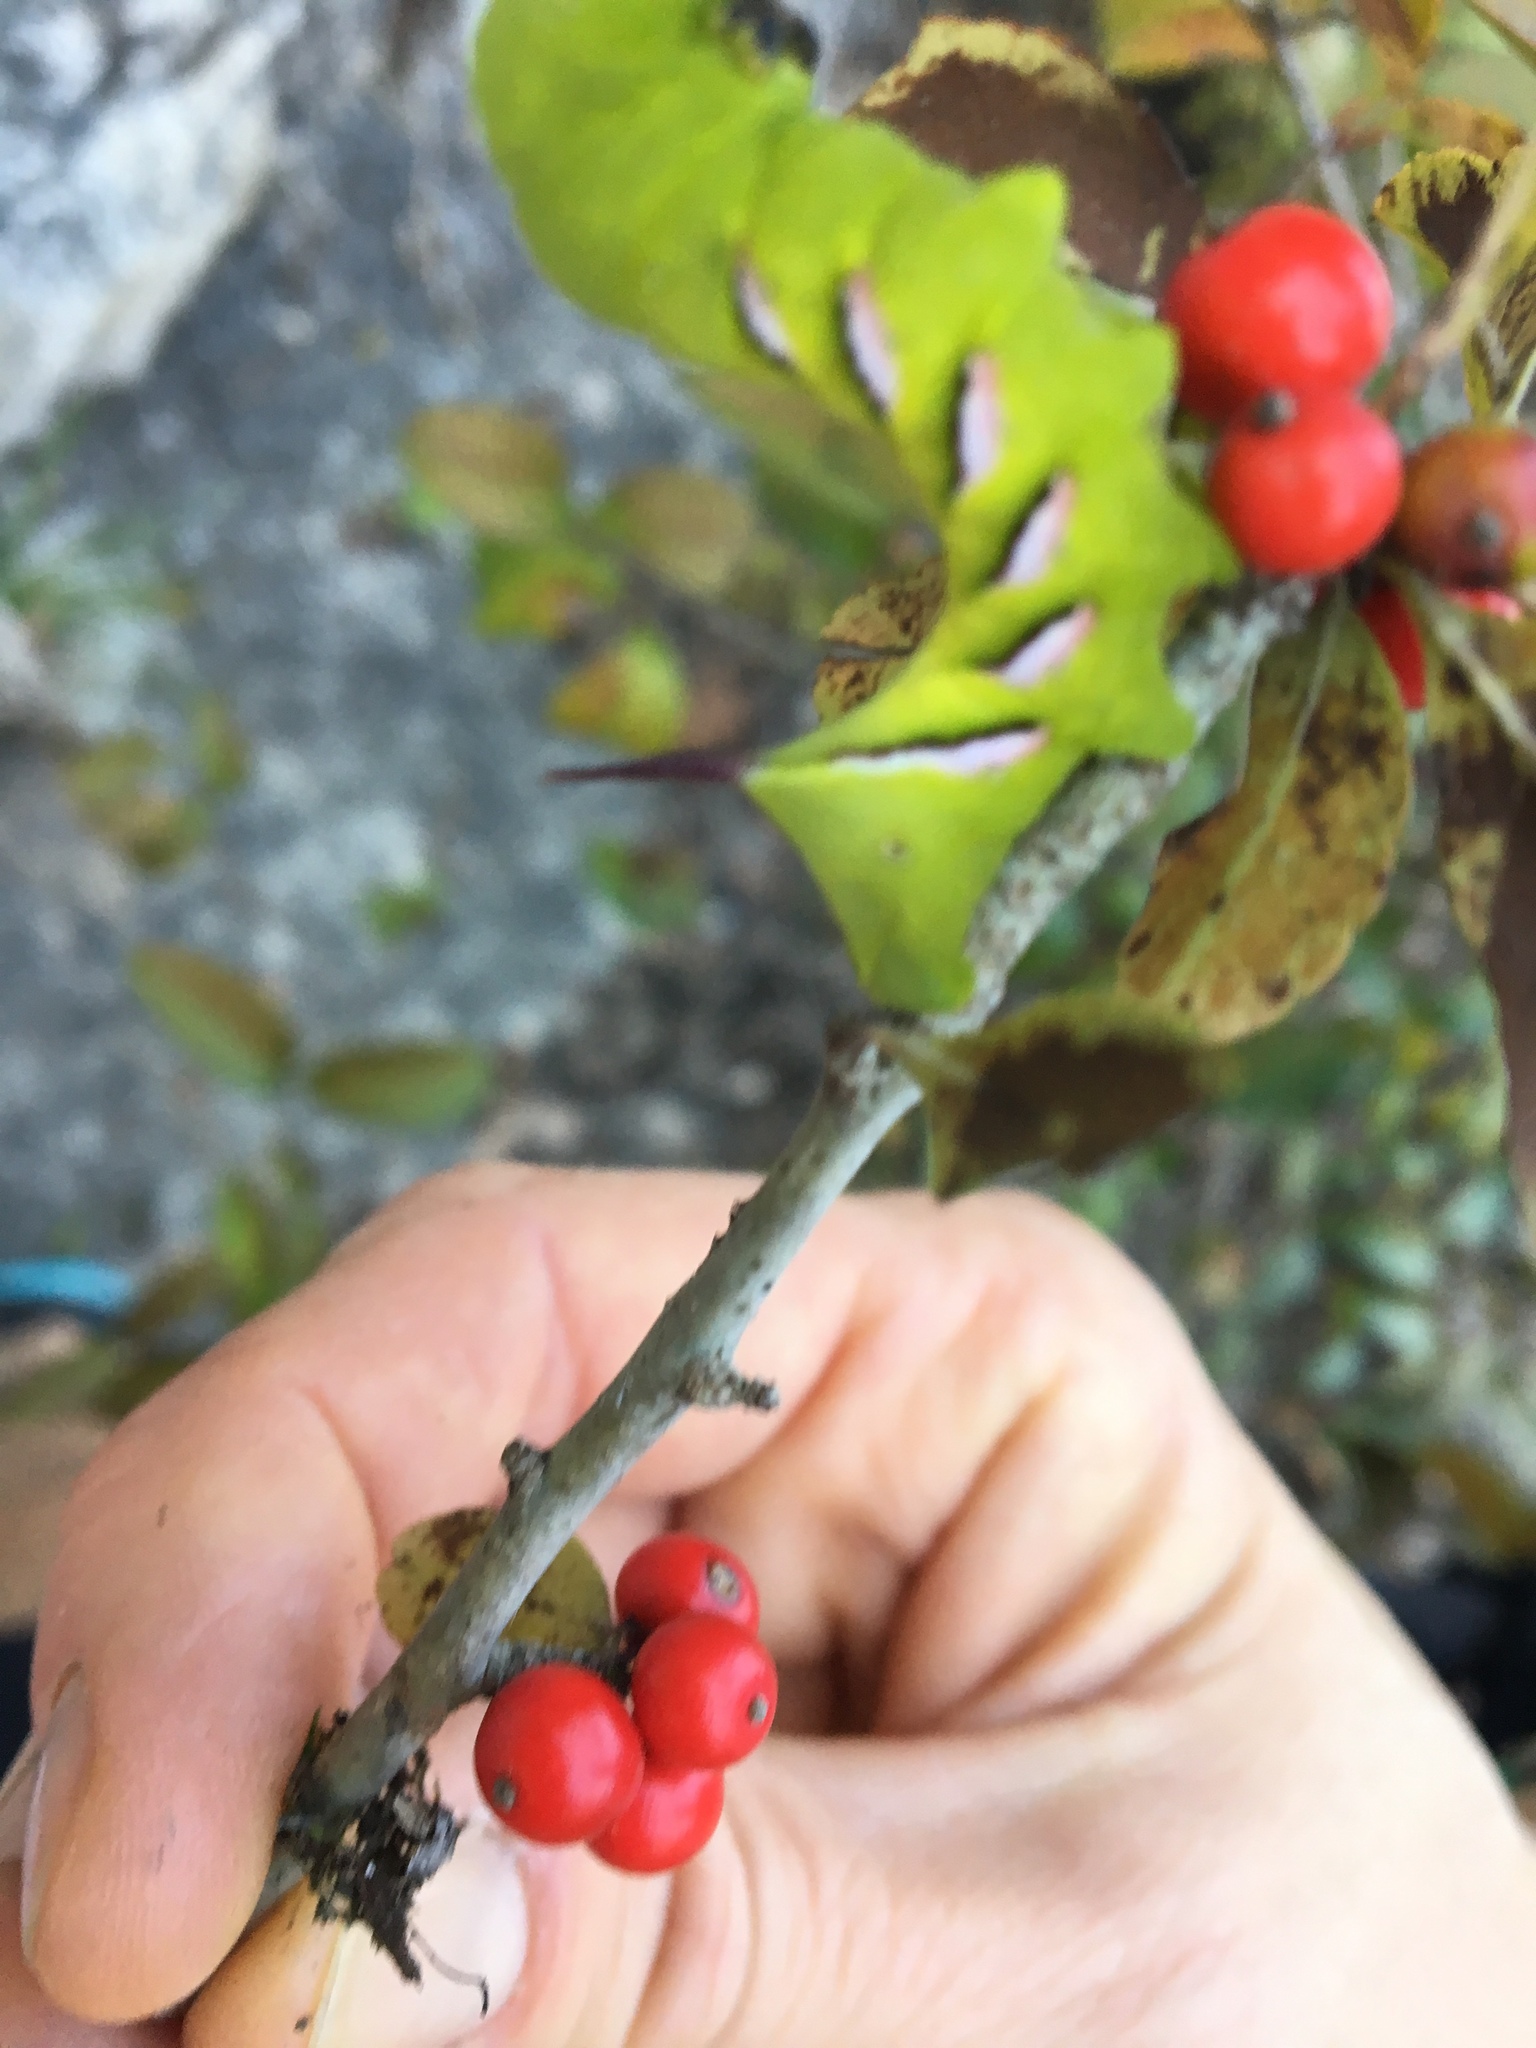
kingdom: Animalia
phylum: Arthropoda
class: Insecta
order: Lepidoptera
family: Sphingidae
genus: Dolba
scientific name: Dolba hyloeus
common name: Pawpaw sphinx
